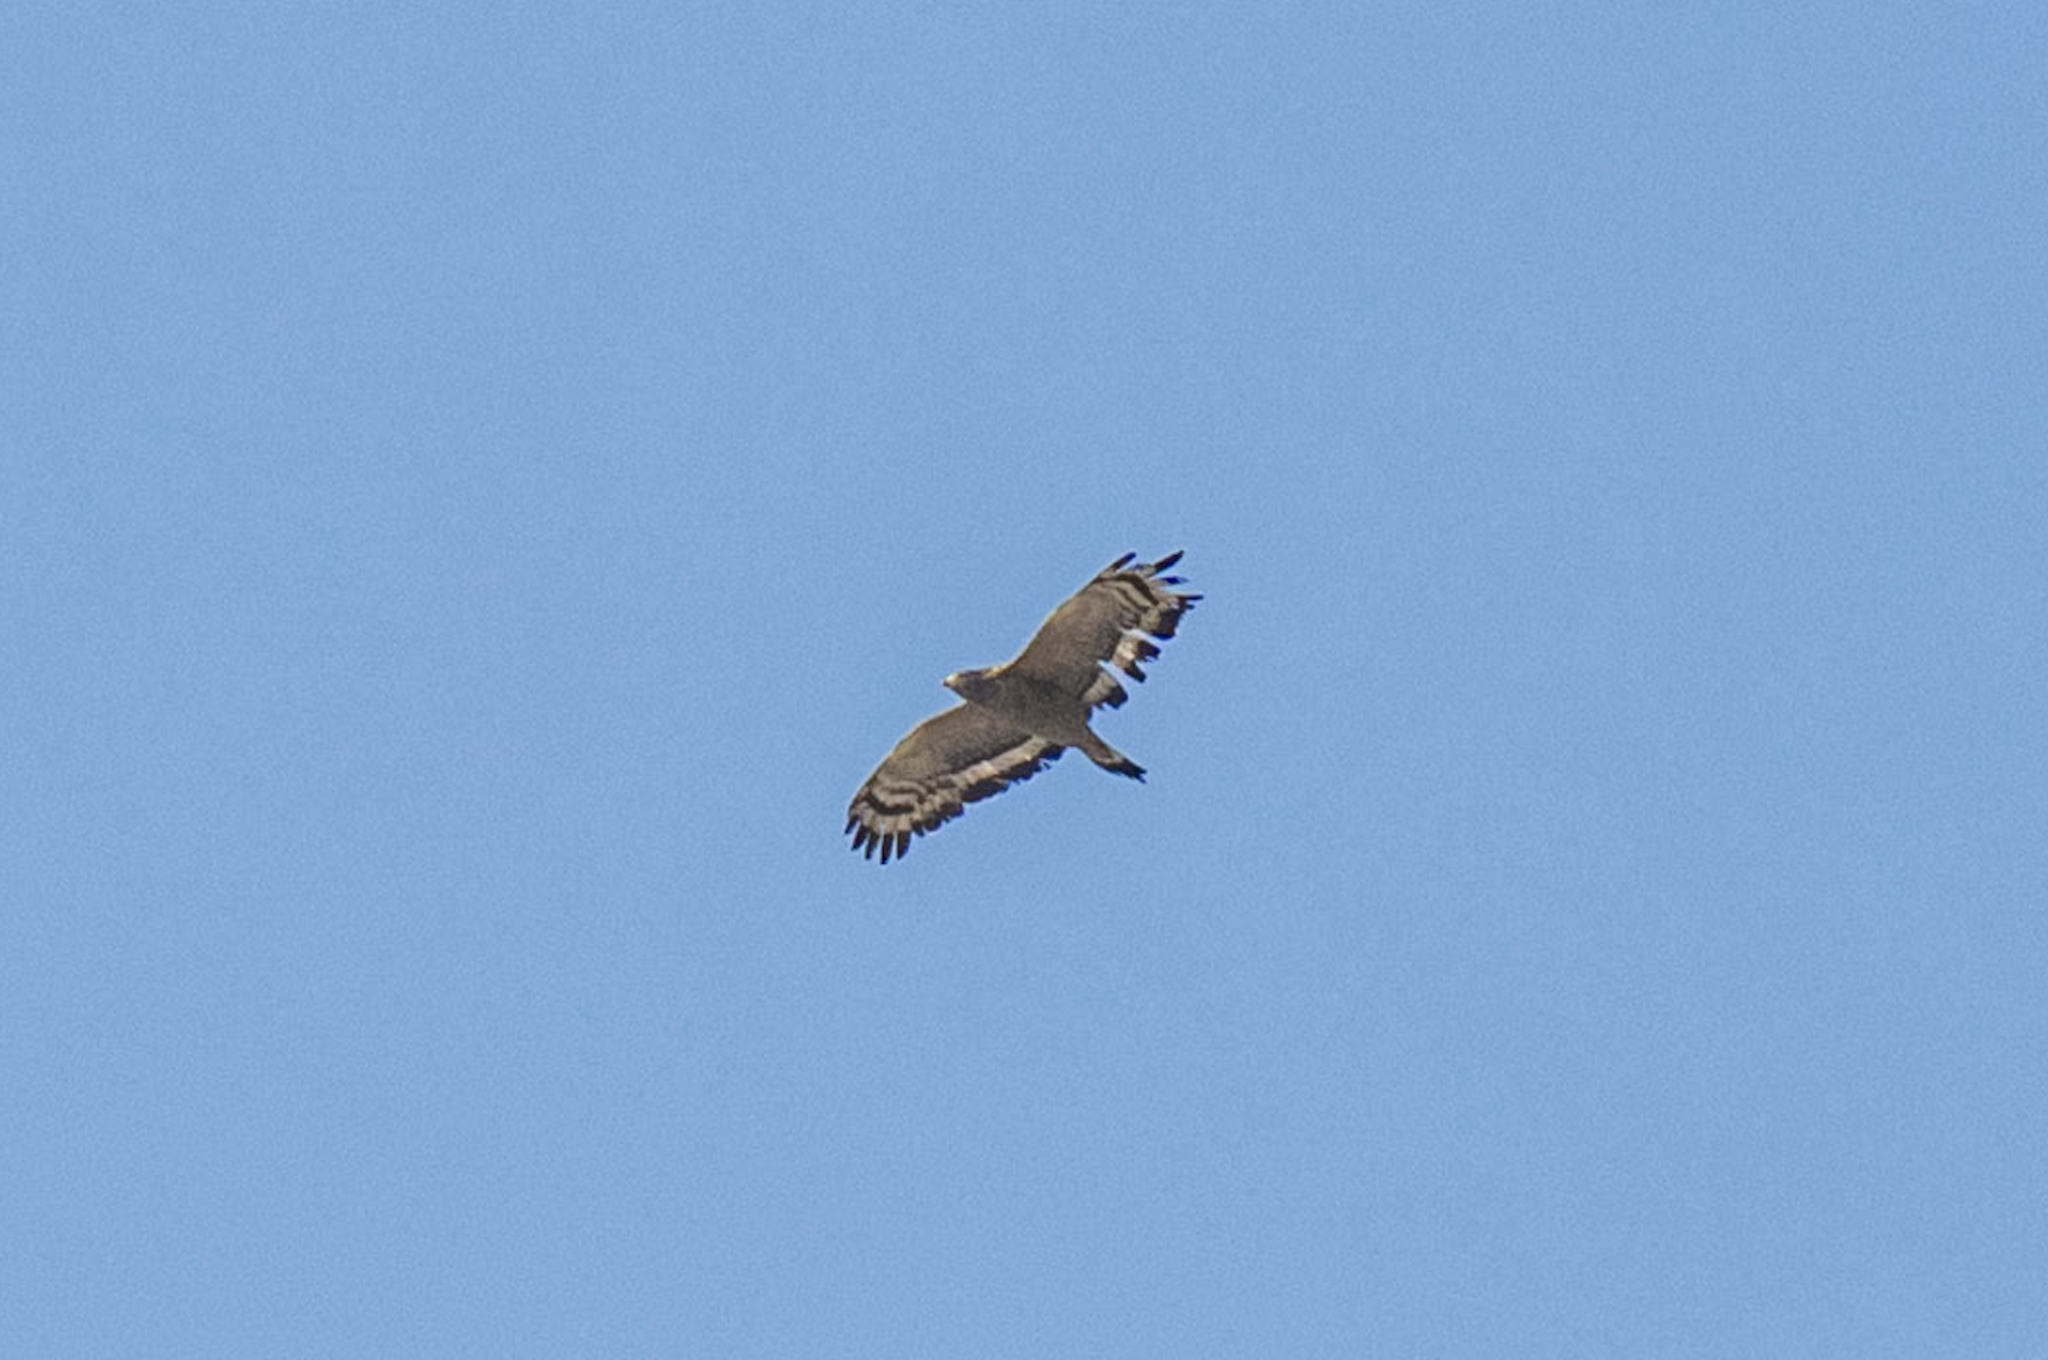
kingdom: Animalia
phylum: Chordata
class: Aves
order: Accipitriformes
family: Accipitridae
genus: Spilornis
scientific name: Spilornis cheela
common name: Crested serpent eagle
